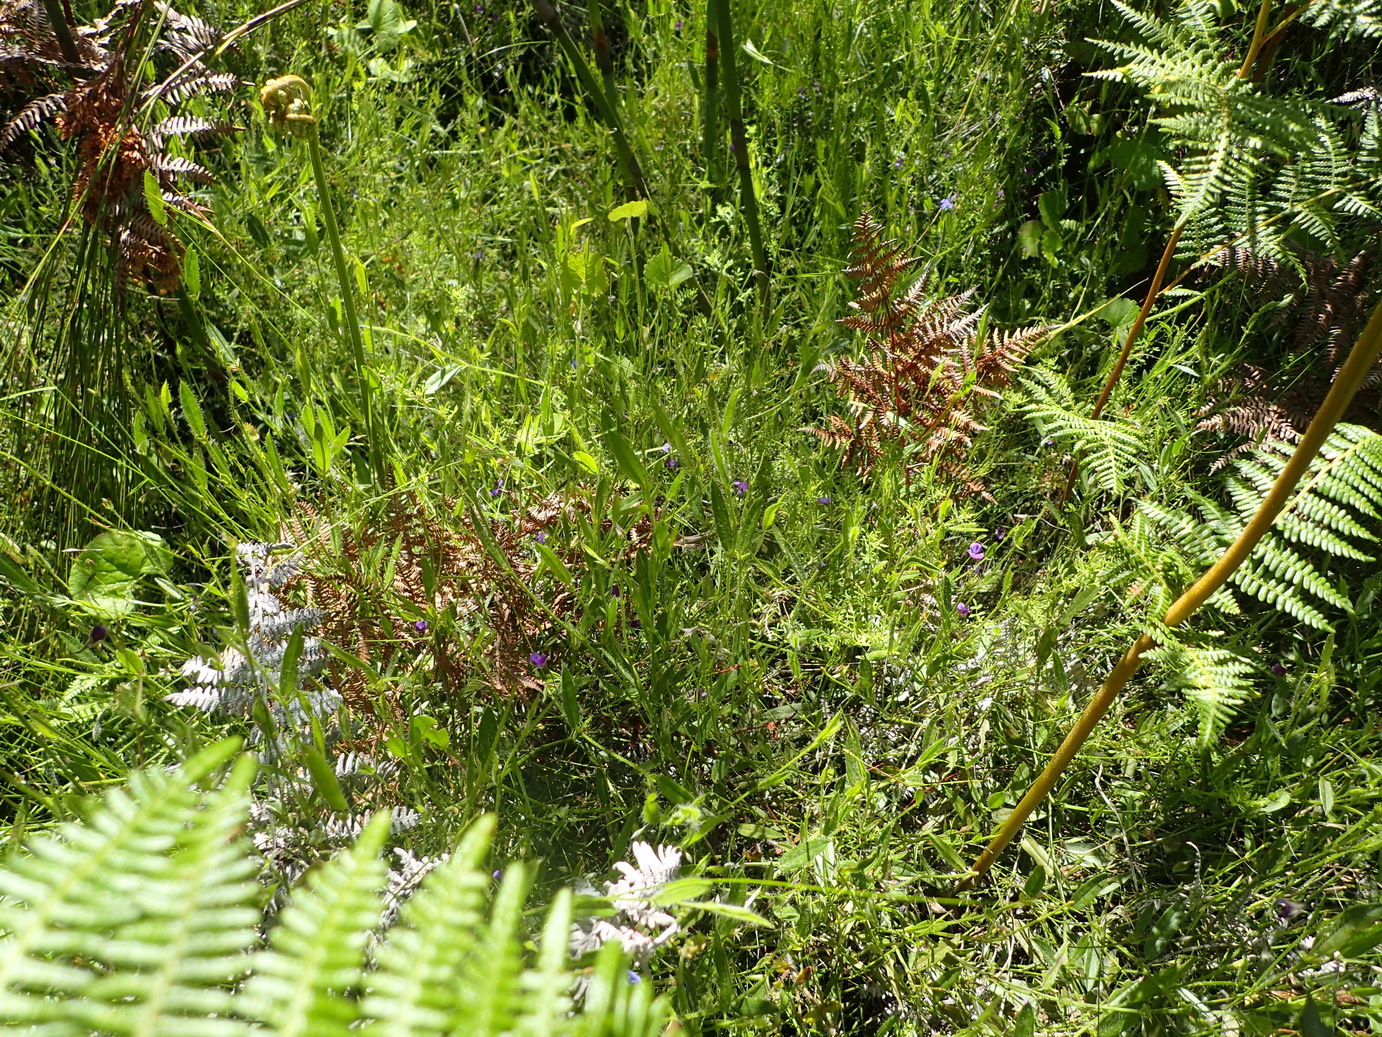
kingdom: Plantae
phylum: Tracheophyta
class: Magnoliopsida
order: Fabales
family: Fabaceae
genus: Psoralea
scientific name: Psoralea plauta
